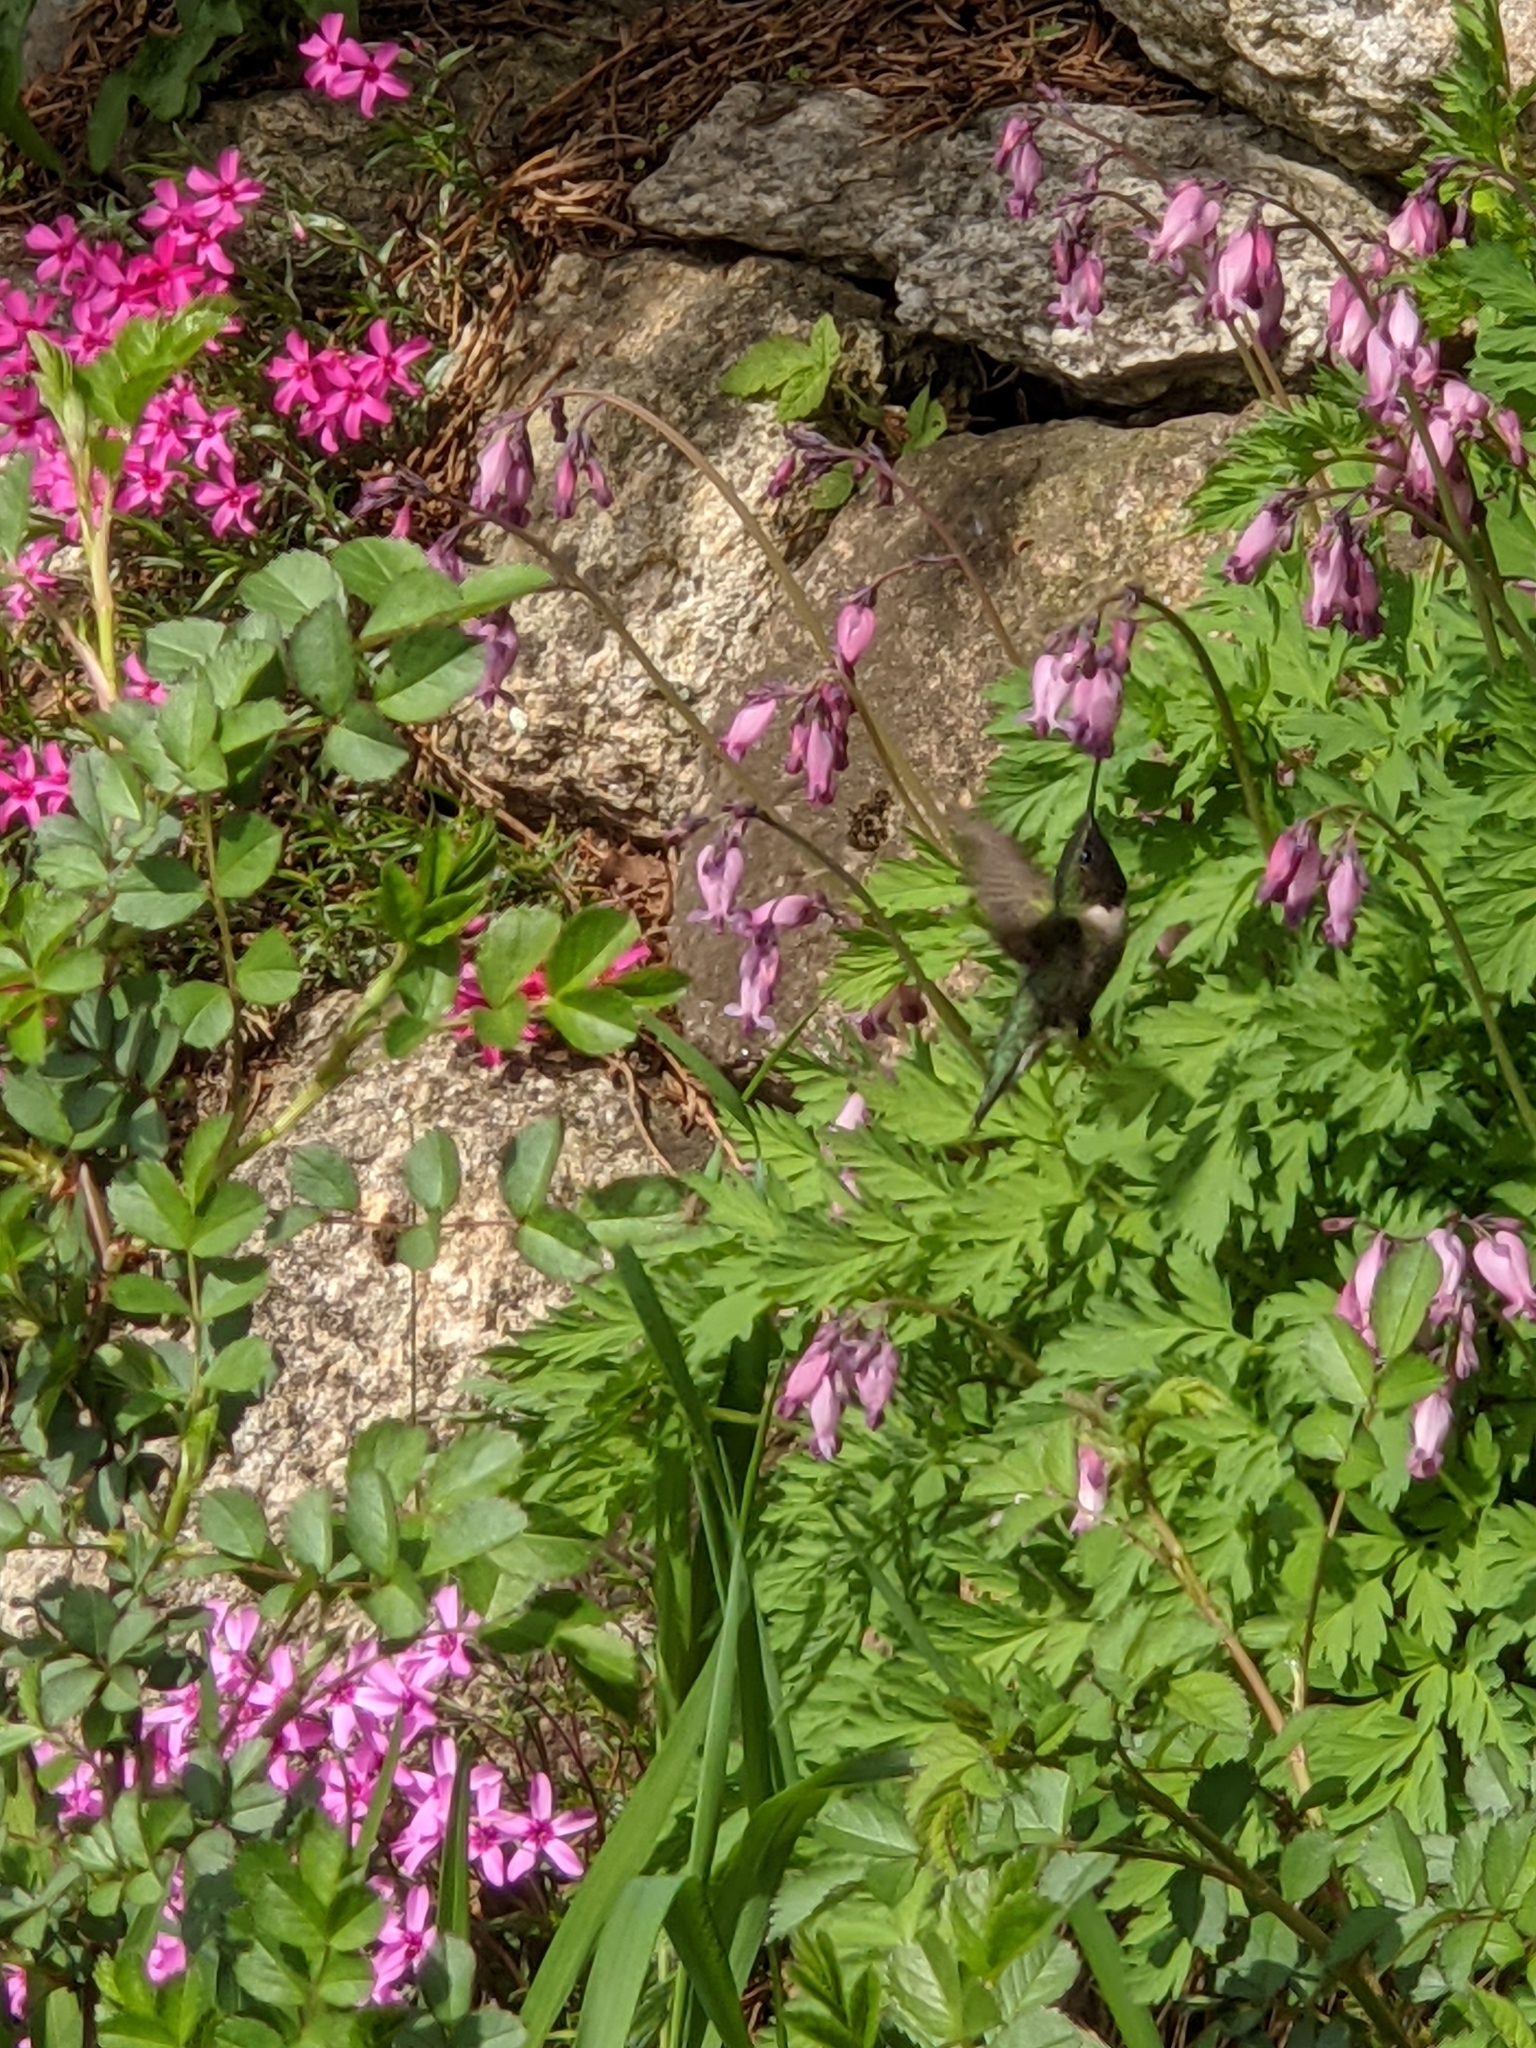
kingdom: Animalia
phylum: Chordata
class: Aves
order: Apodiformes
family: Trochilidae
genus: Archilochus
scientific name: Archilochus colubris
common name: Ruby-throated hummingbird
